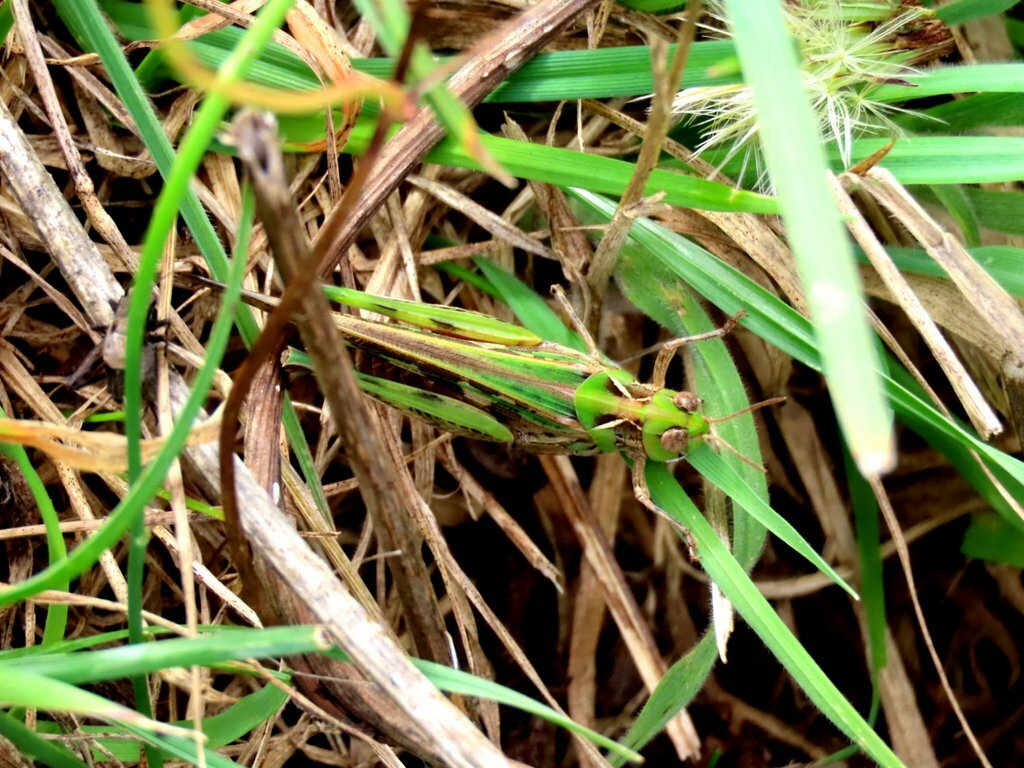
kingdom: Animalia
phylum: Arthropoda
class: Insecta
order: Orthoptera
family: Acrididae
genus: Chortoicetes
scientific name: Chortoicetes terminifera
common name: Australian plague locust
